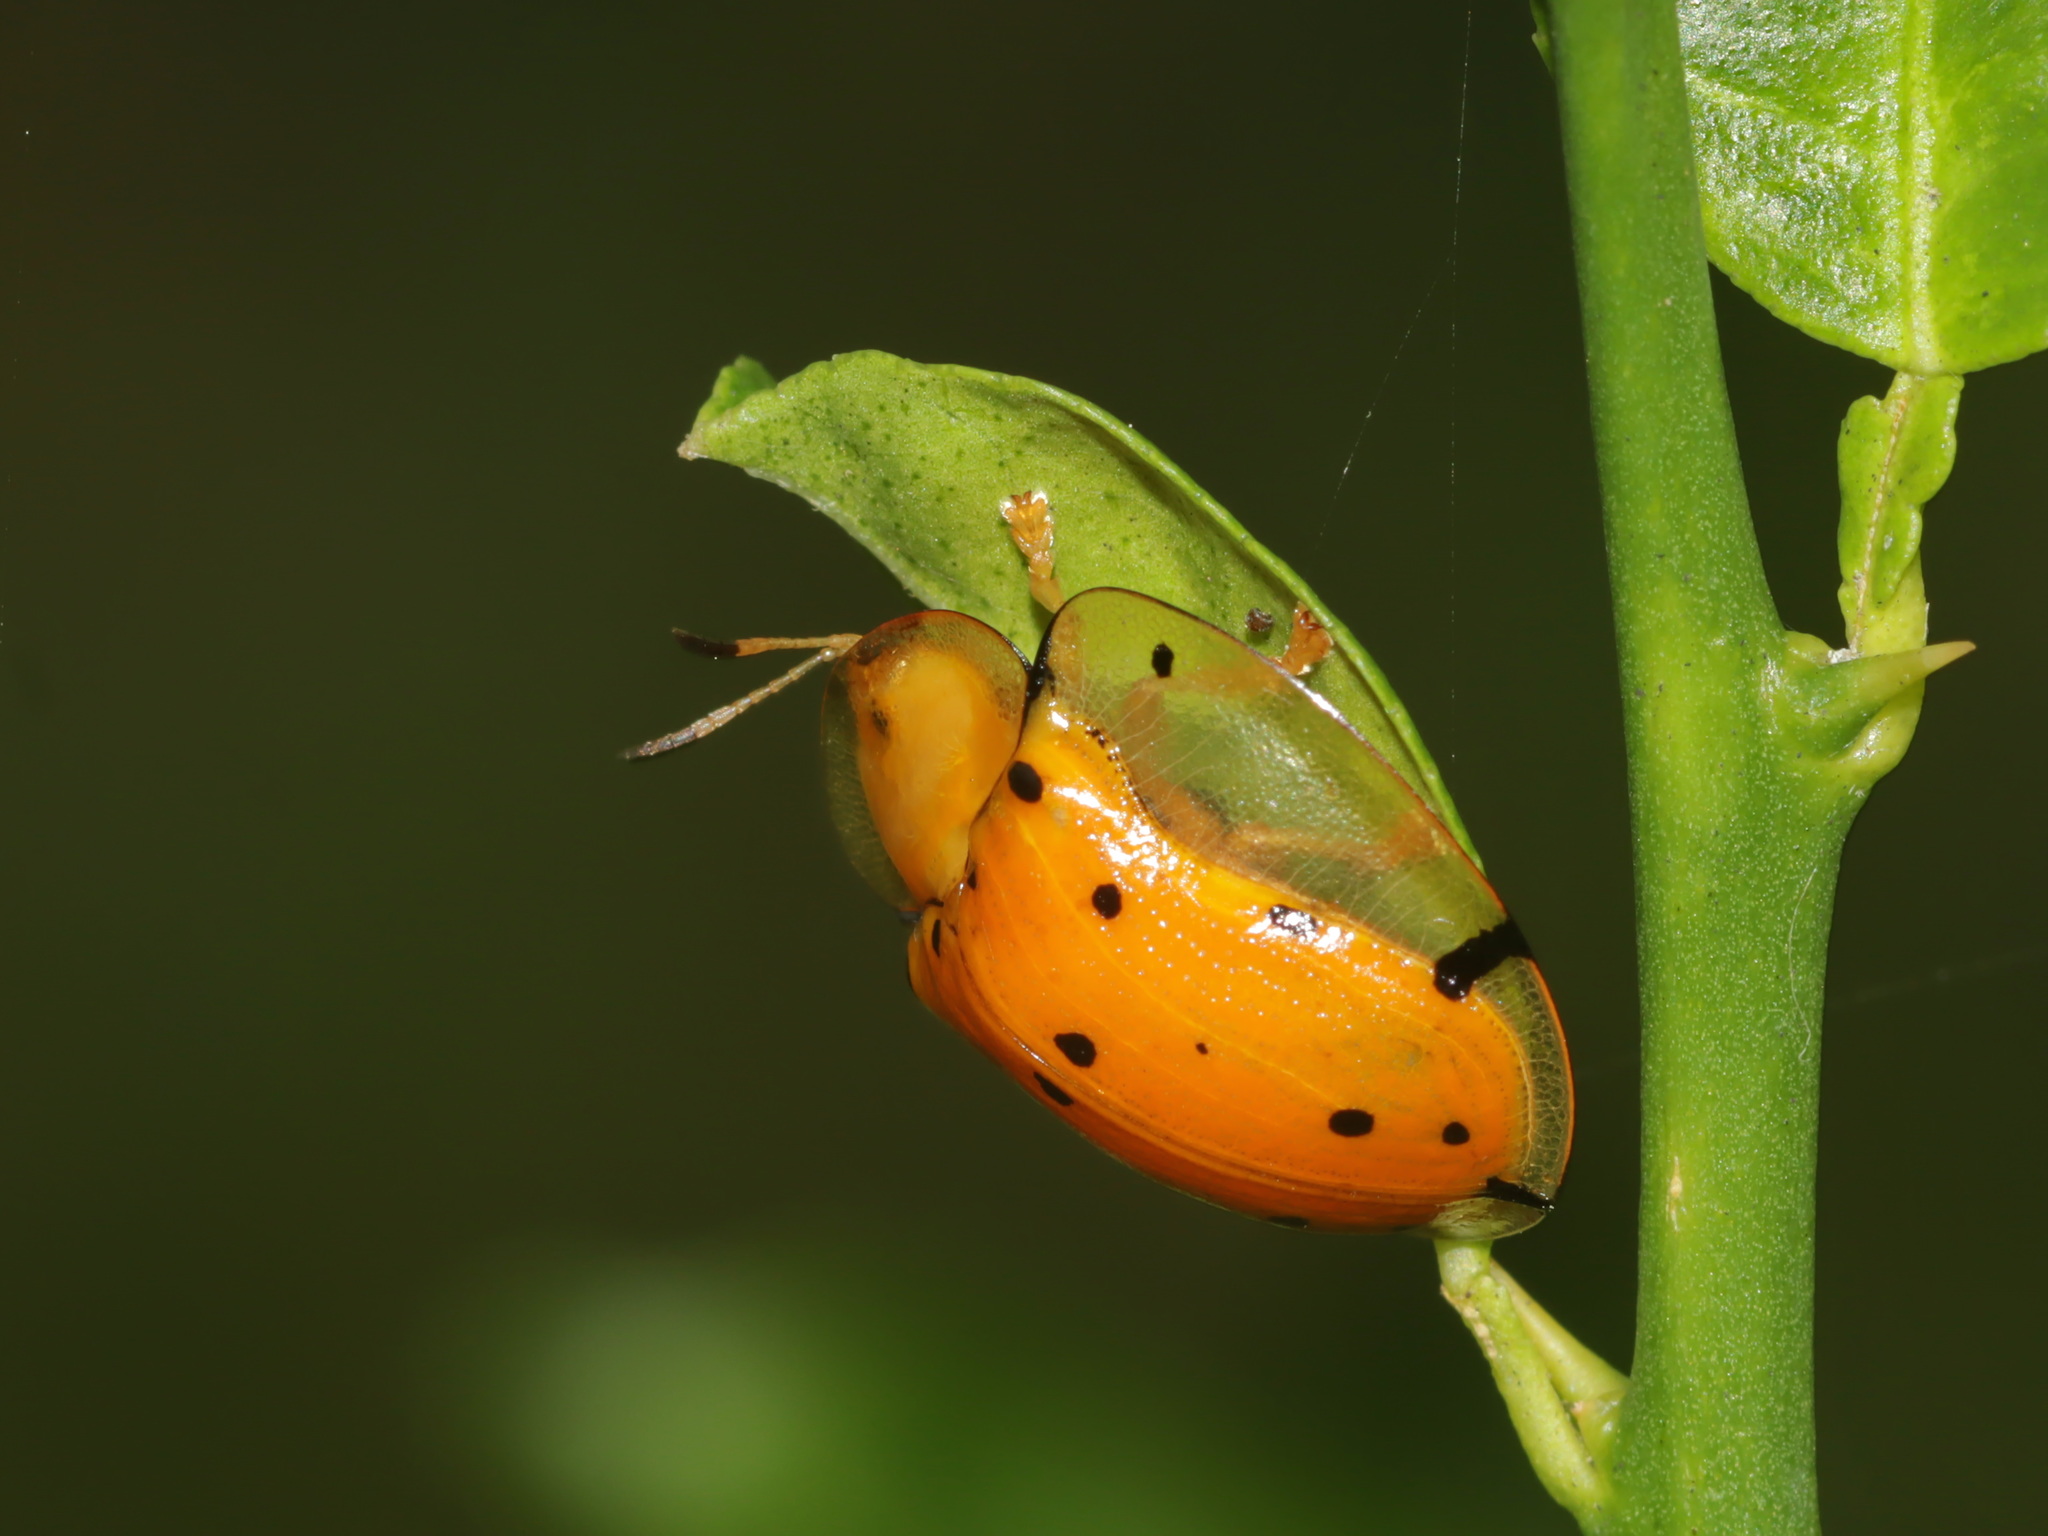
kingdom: Animalia
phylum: Arthropoda
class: Insecta
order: Coleoptera
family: Chrysomelidae
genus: Aspidimorpha
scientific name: Aspidimorpha miliaris
